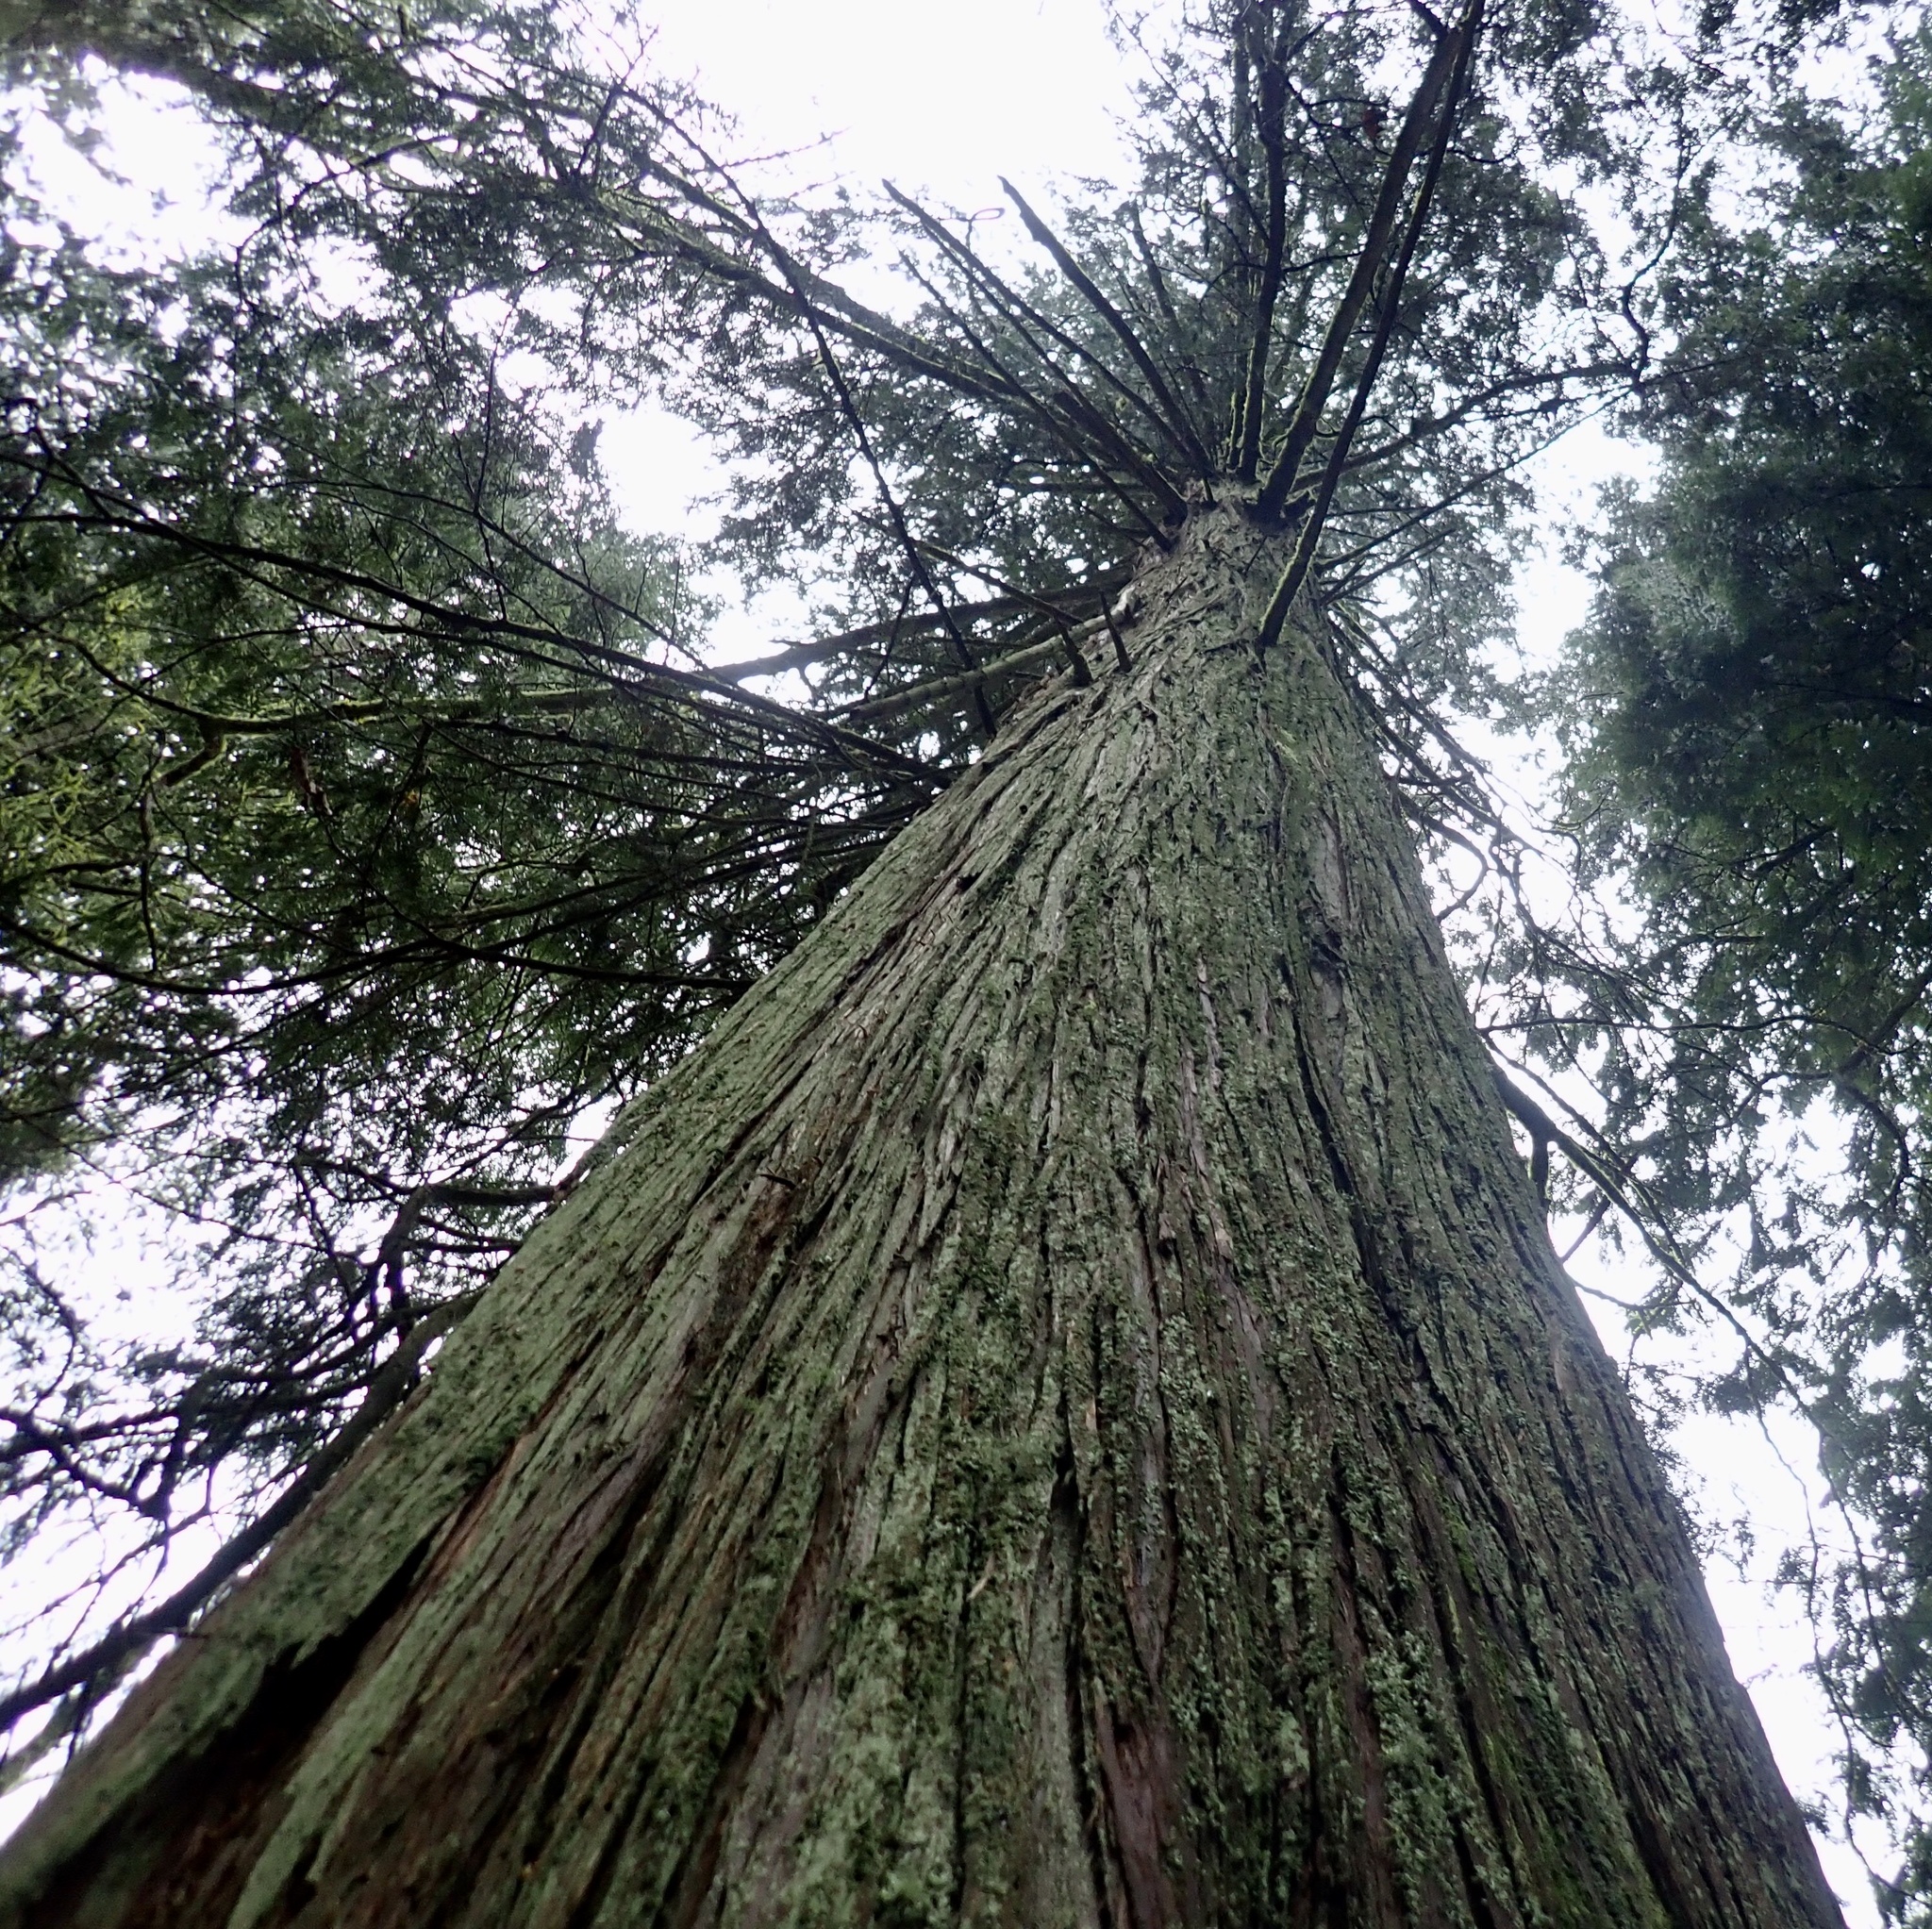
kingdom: Plantae
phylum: Tracheophyta
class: Pinopsida
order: Pinales
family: Cupressaceae
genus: Thuja
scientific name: Thuja plicata
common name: Western red-cedar
